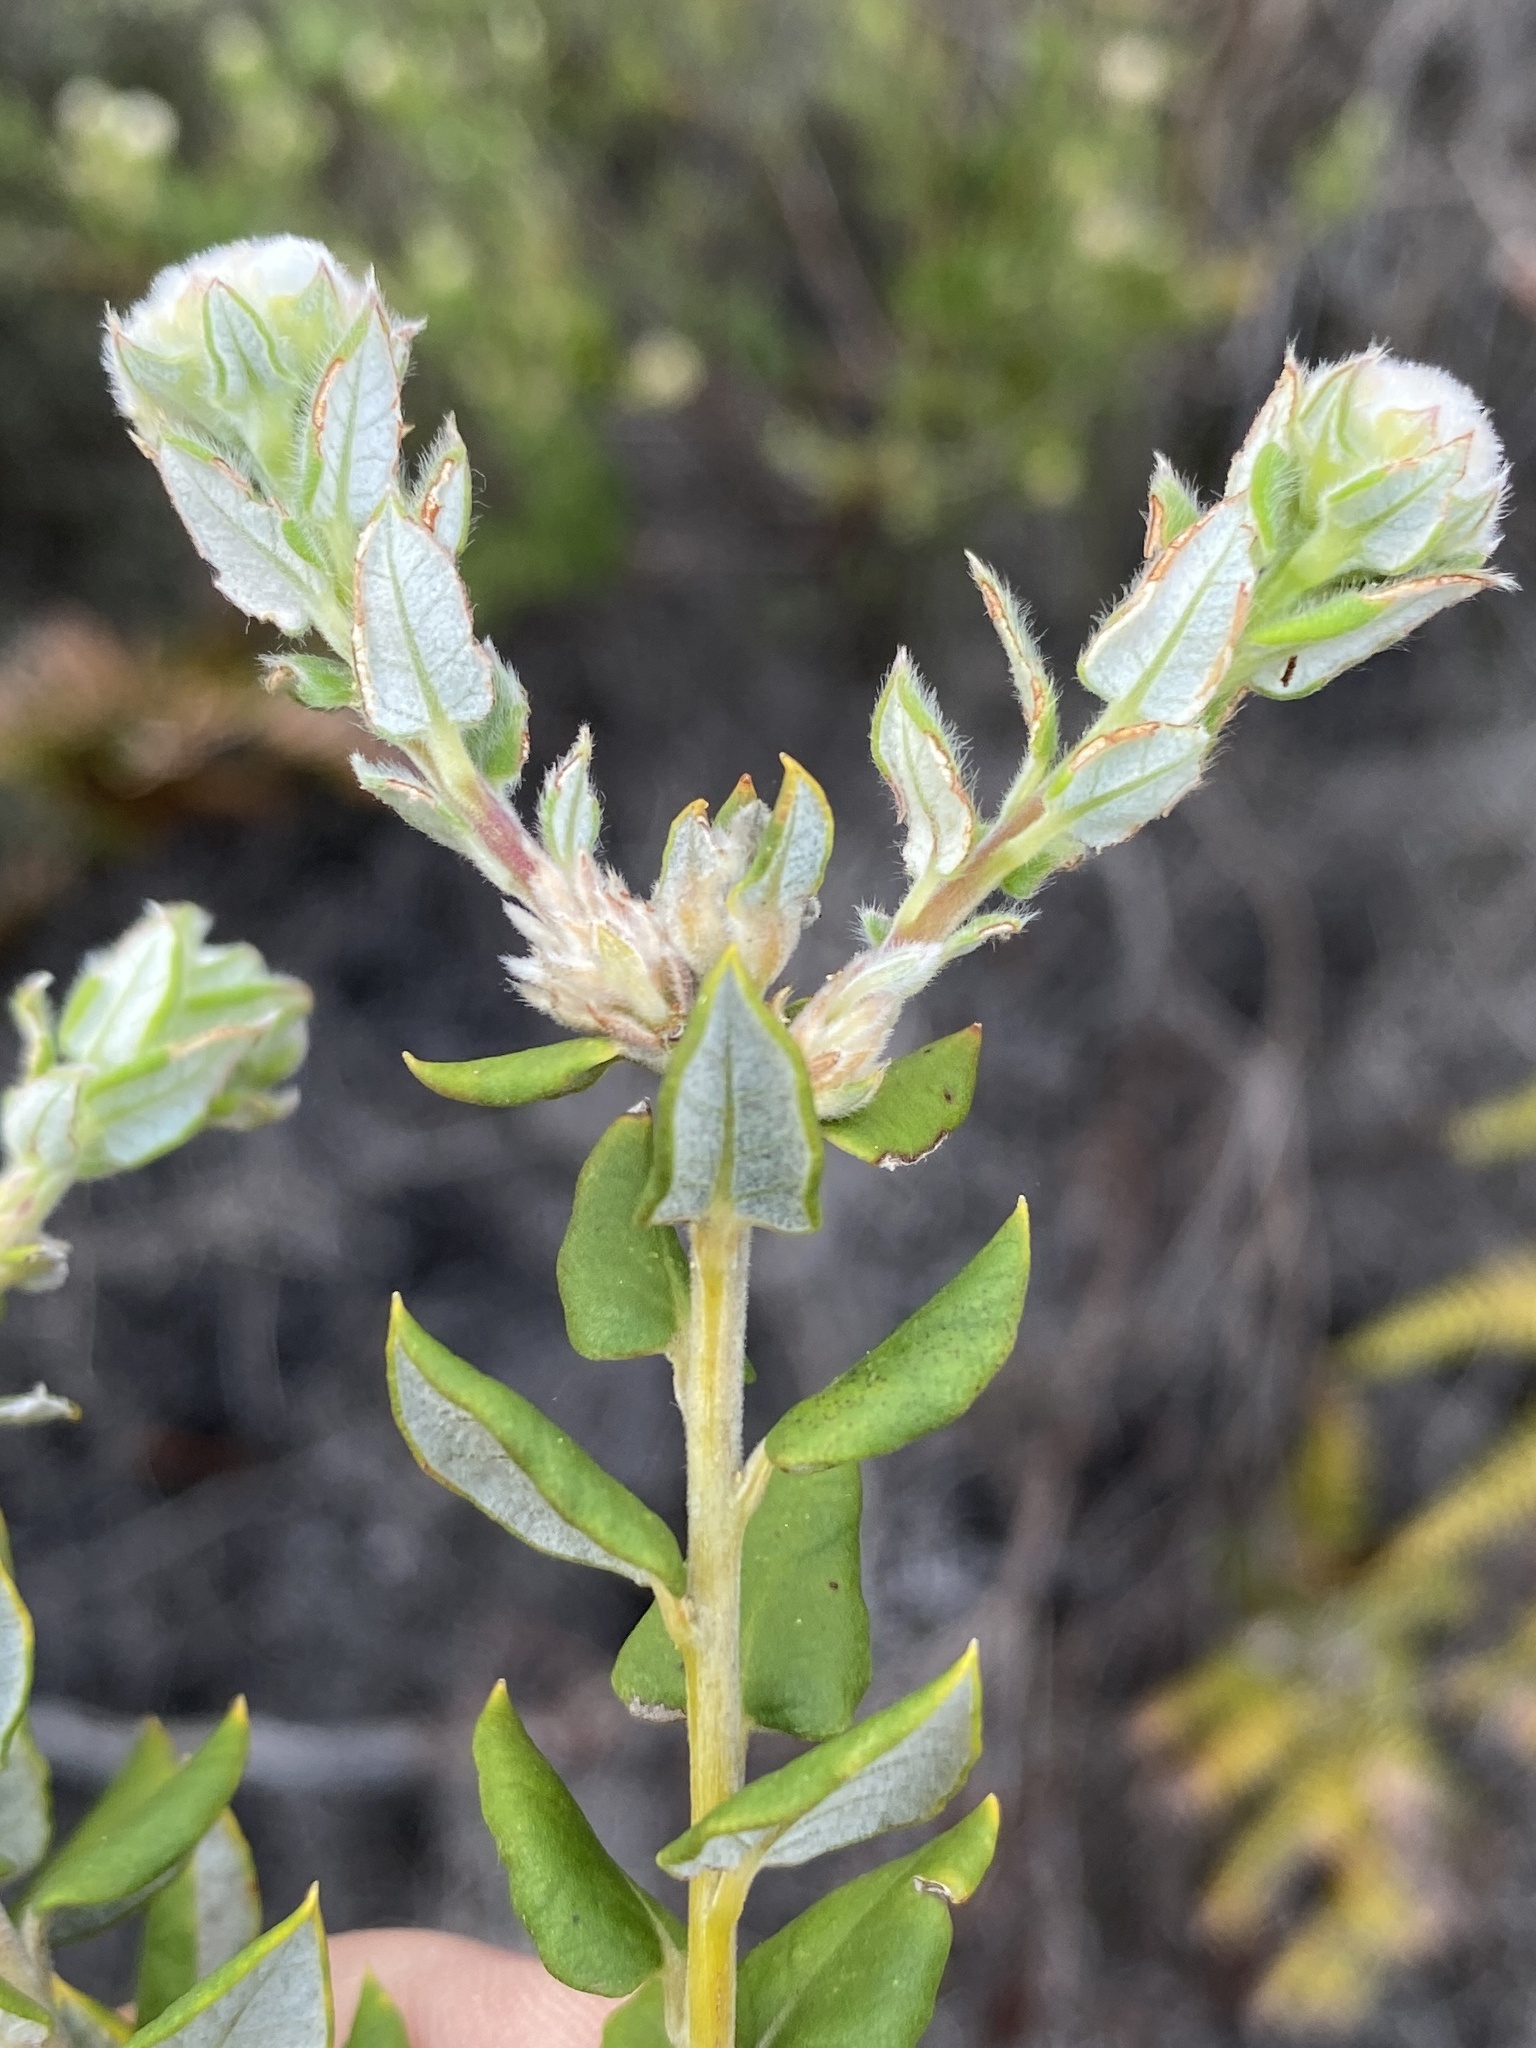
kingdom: Plantae
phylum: Tracheophyta
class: Magnoliopsida
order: Rosales
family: Rhamnaceae
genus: Phylica
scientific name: Phylica nervosa
